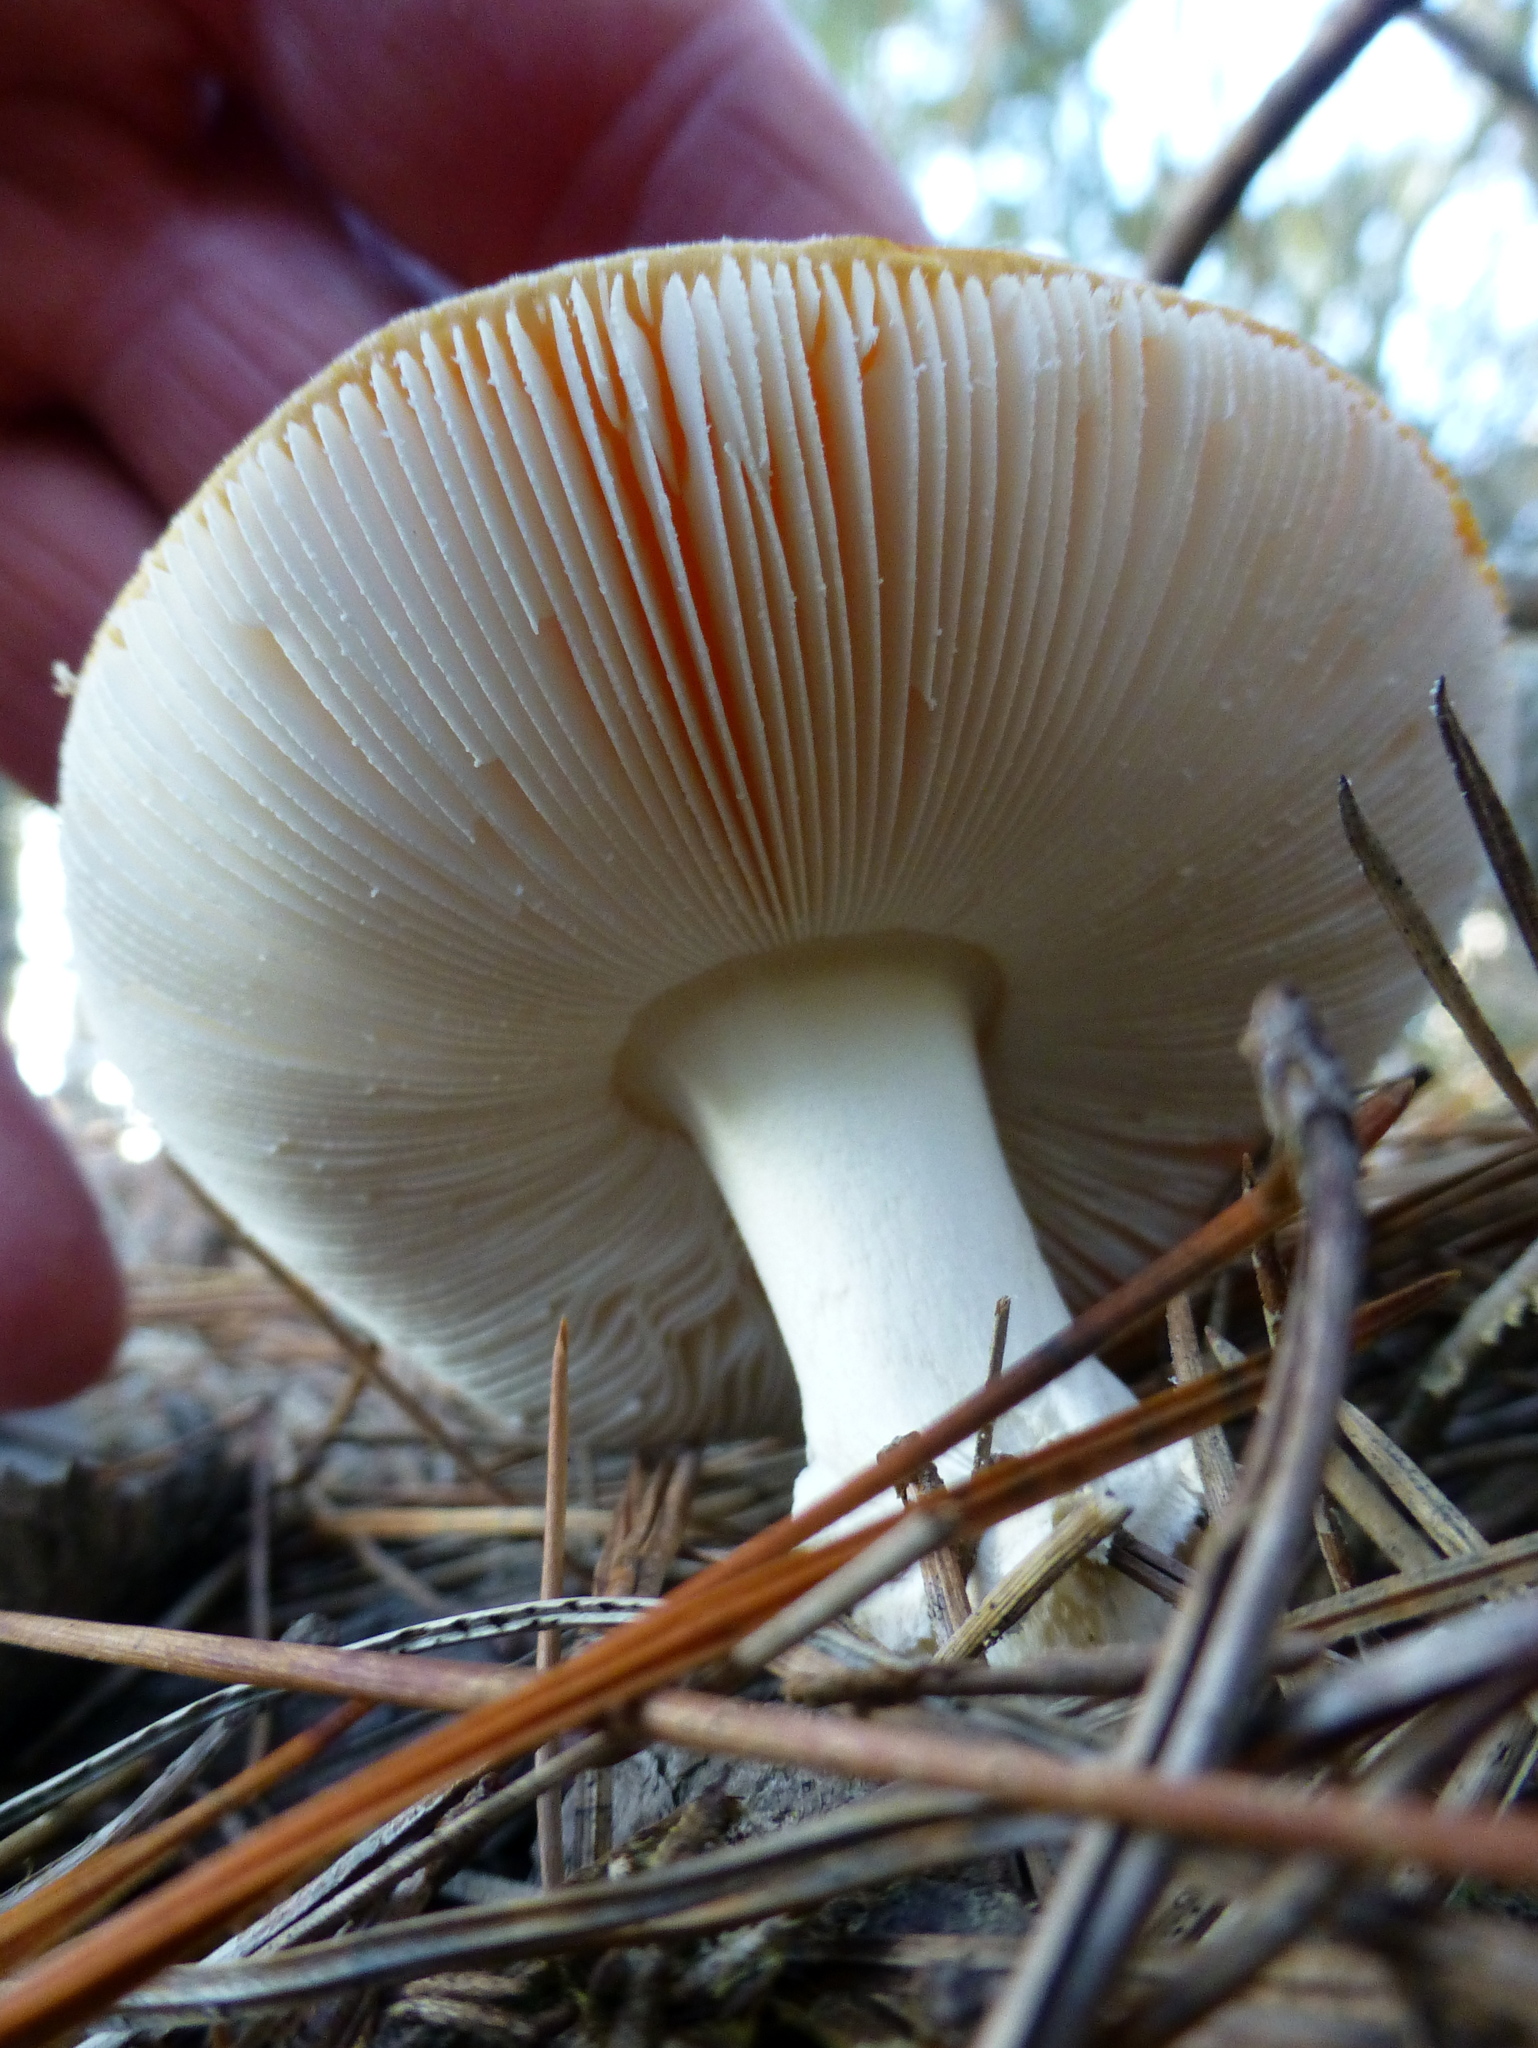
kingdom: Fungi
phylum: Basidiomycota
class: Agaricomycetes
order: Agaricales
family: Amanitaceae
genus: Amanita
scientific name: Amanita muscaria
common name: Fly agaric
